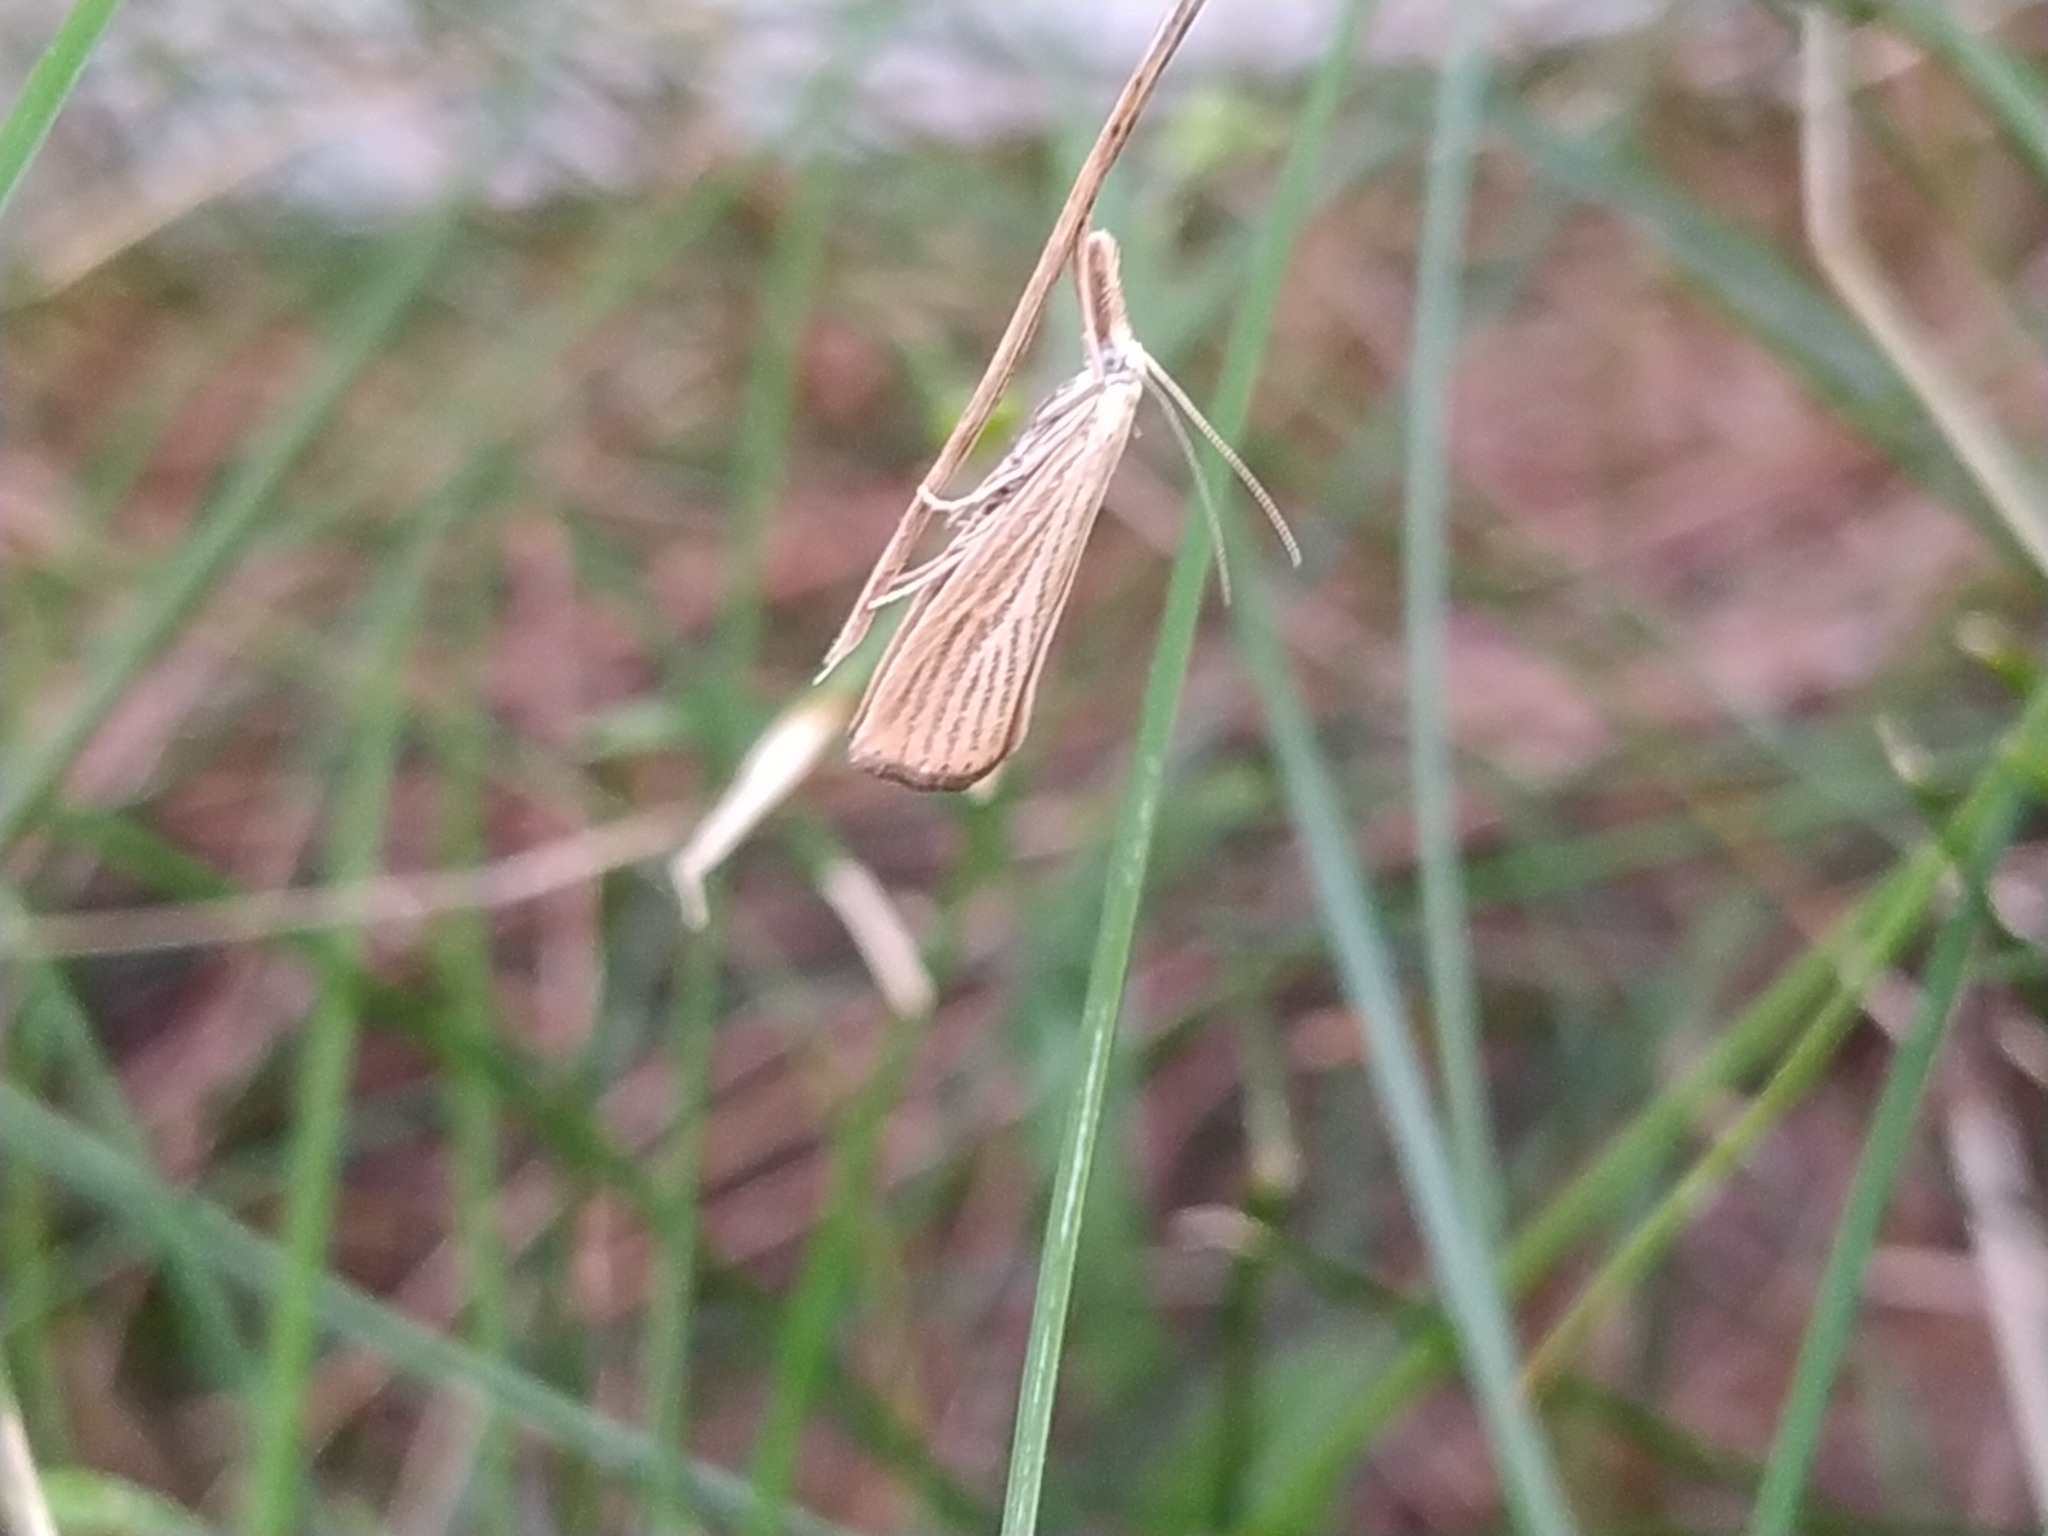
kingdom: Animalia
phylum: Arthropoda
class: Insecta
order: Lepidoptera
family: Crambidae
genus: Agriphila
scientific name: Agriphila straminella
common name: Straw grass-veneer
